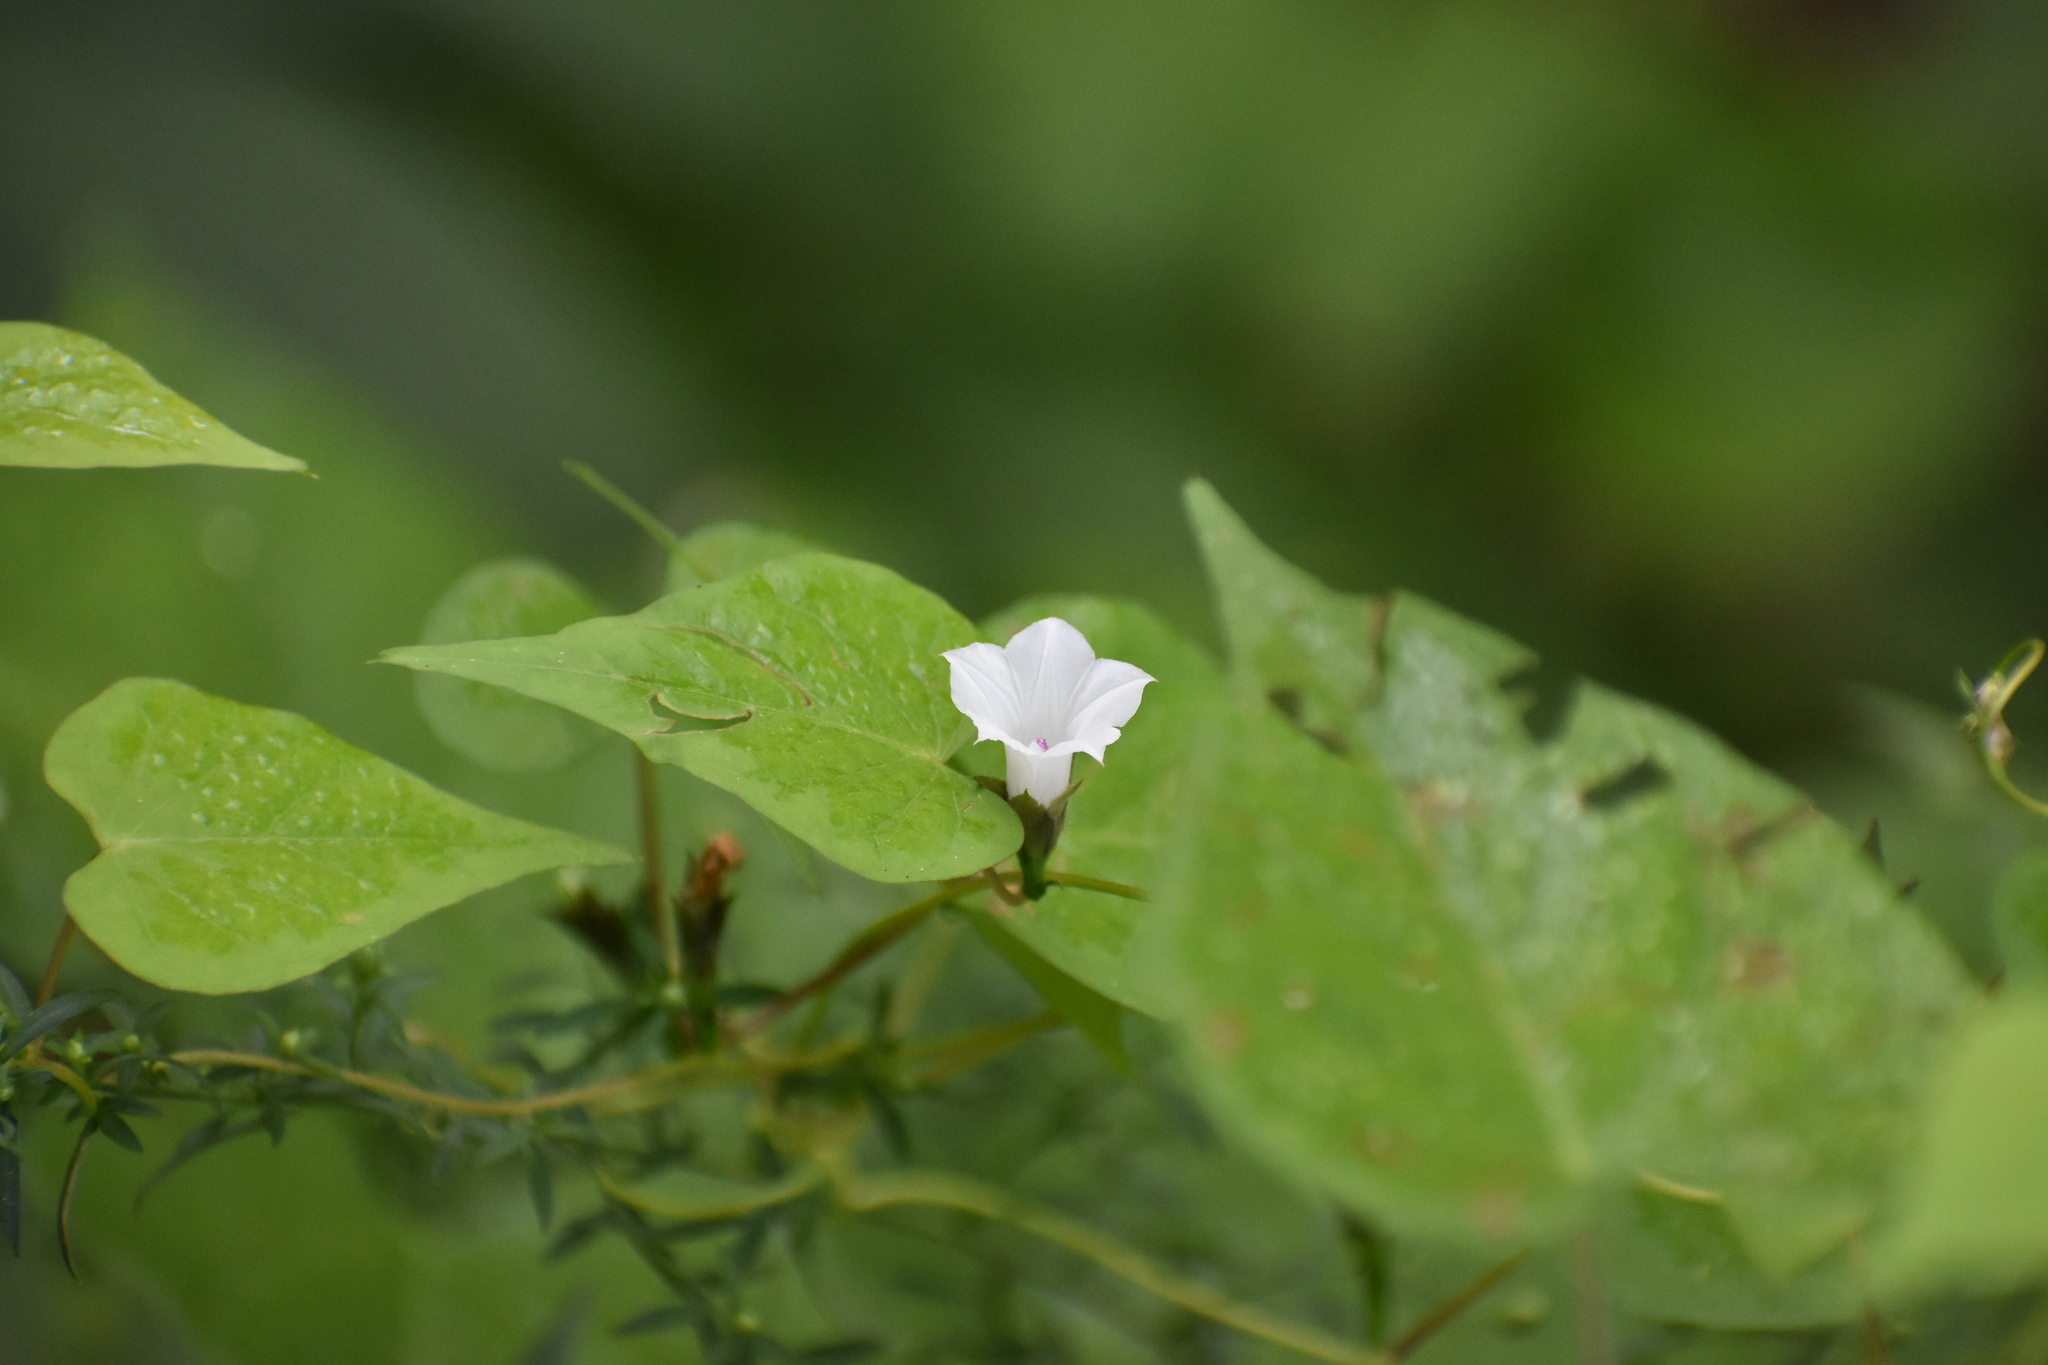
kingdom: Plantae
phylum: Tracheophyta
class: Magnoliopsida
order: Solanales
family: Convolvulaceae
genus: Ipomoea
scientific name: Ipomoea lacunosa
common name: White morning-glory
